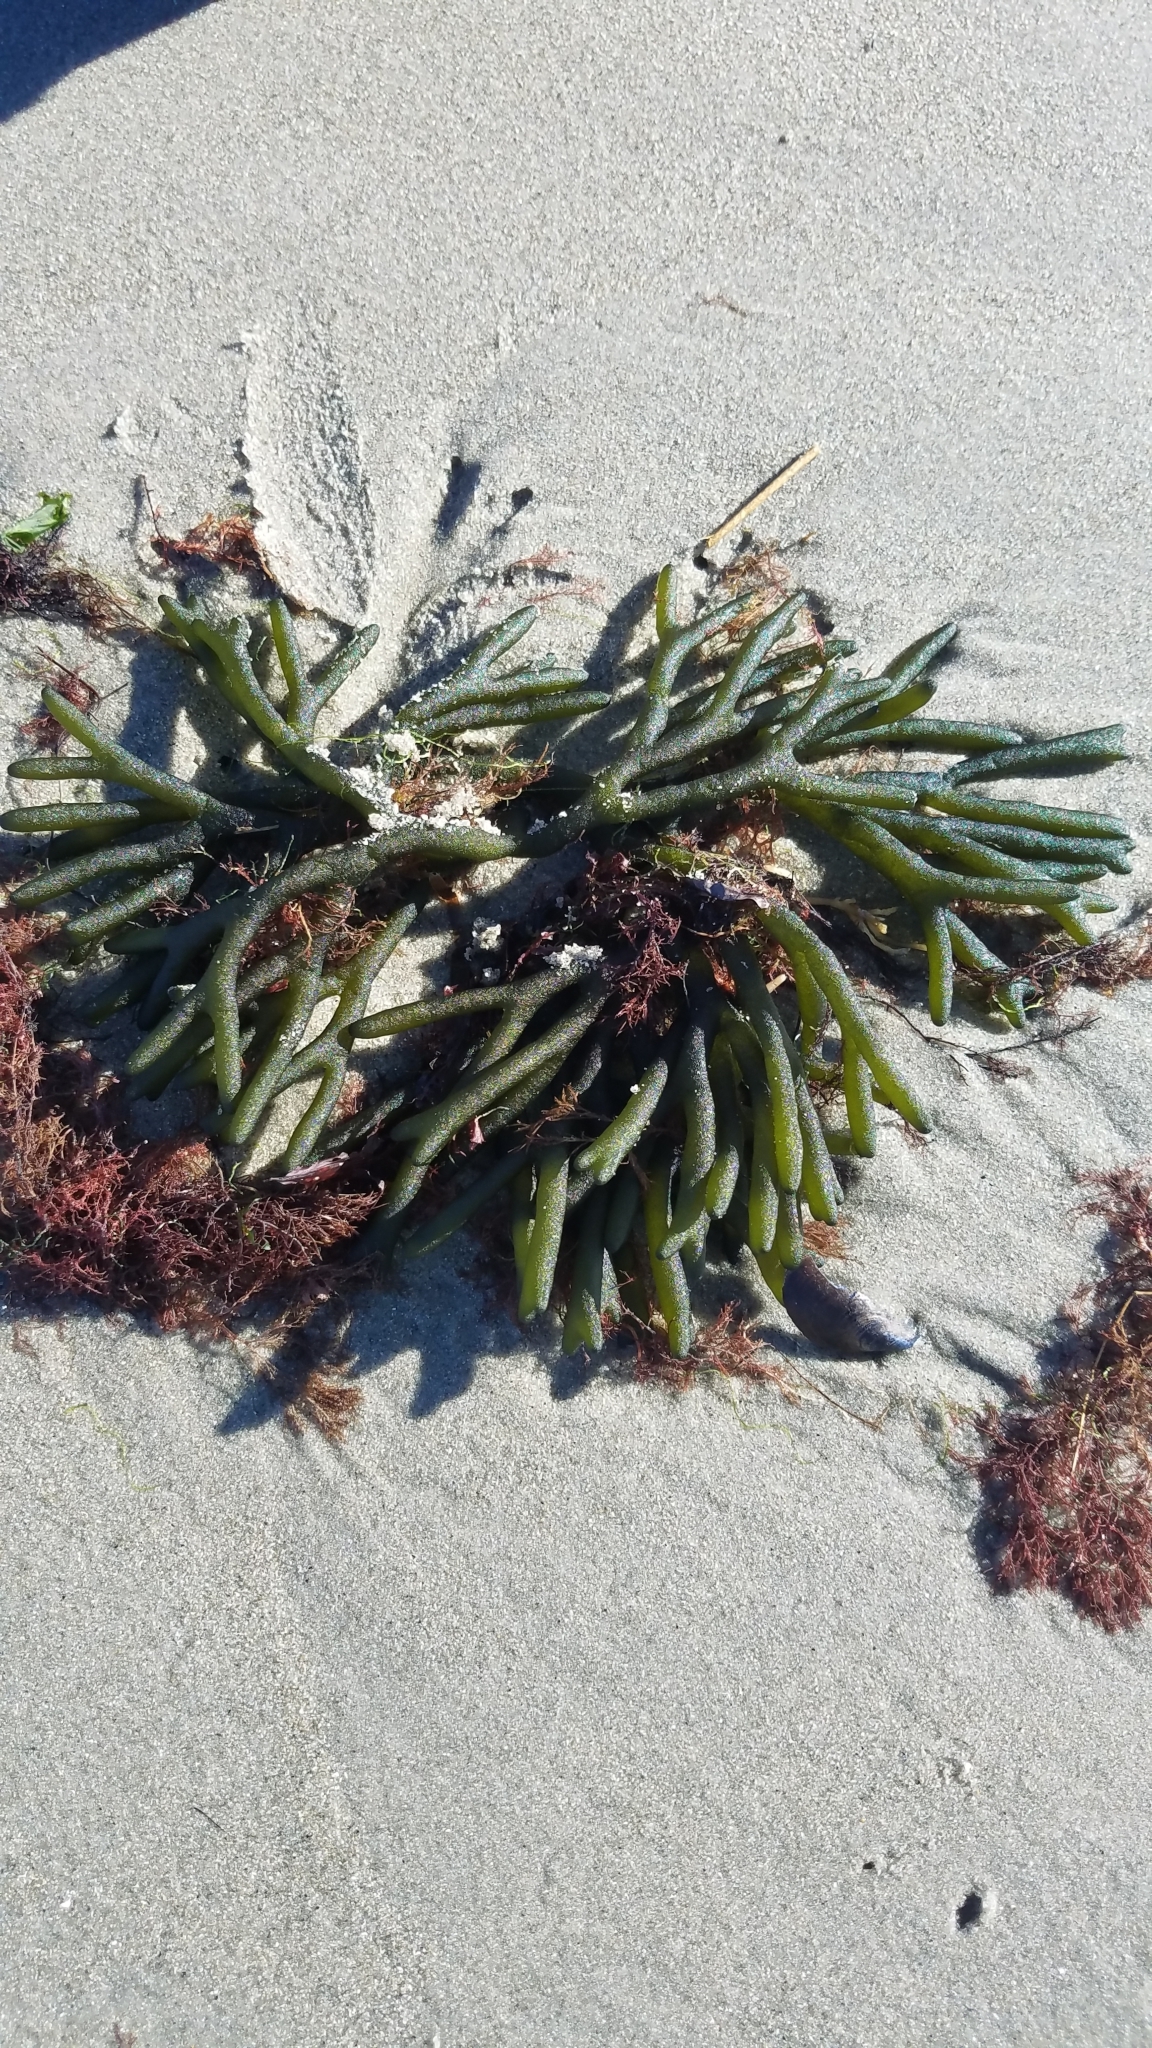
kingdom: Plantae
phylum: Chlorophyta
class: Ulvophyceae
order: Bryopsidales
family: Codiaceae
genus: Codium
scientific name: Codium fragile
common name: Dead man's fingers
